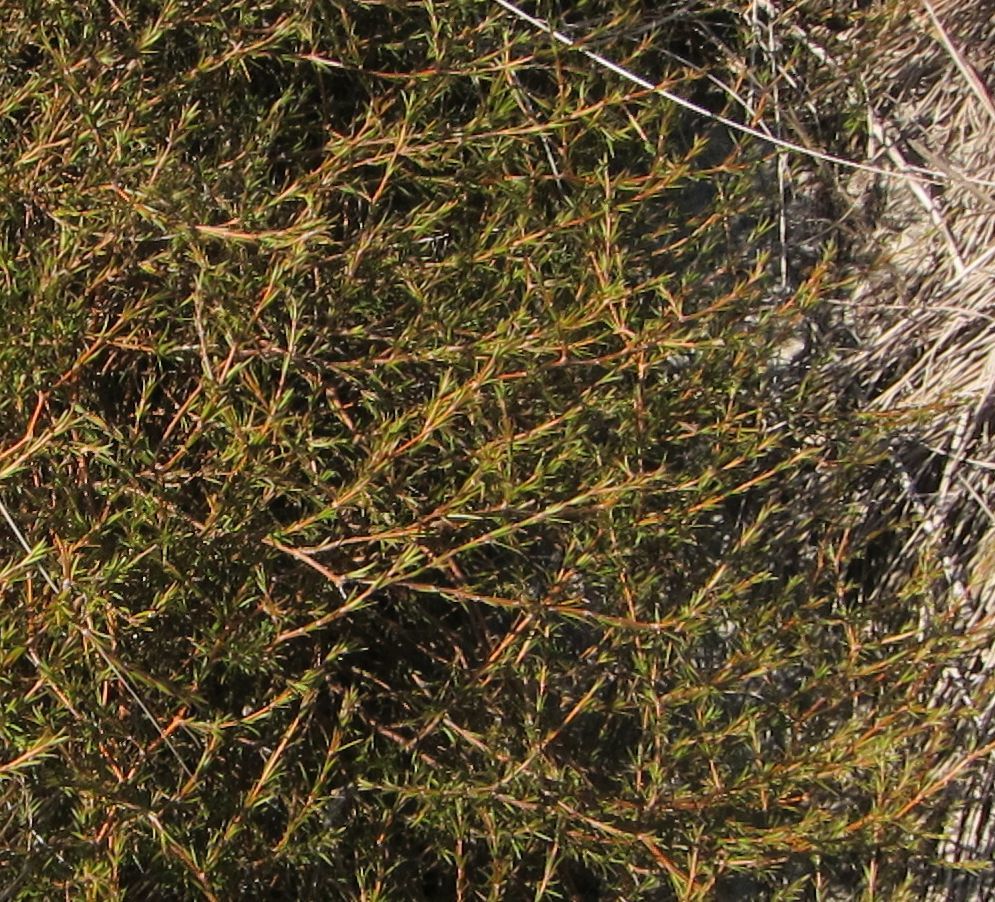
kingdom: Plantae
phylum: Tracheophyta
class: Magnoliopsida
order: Gentianales
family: Rubiaceae
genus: Coprosma
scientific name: Coprosma acerosa
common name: Sand coprosma
